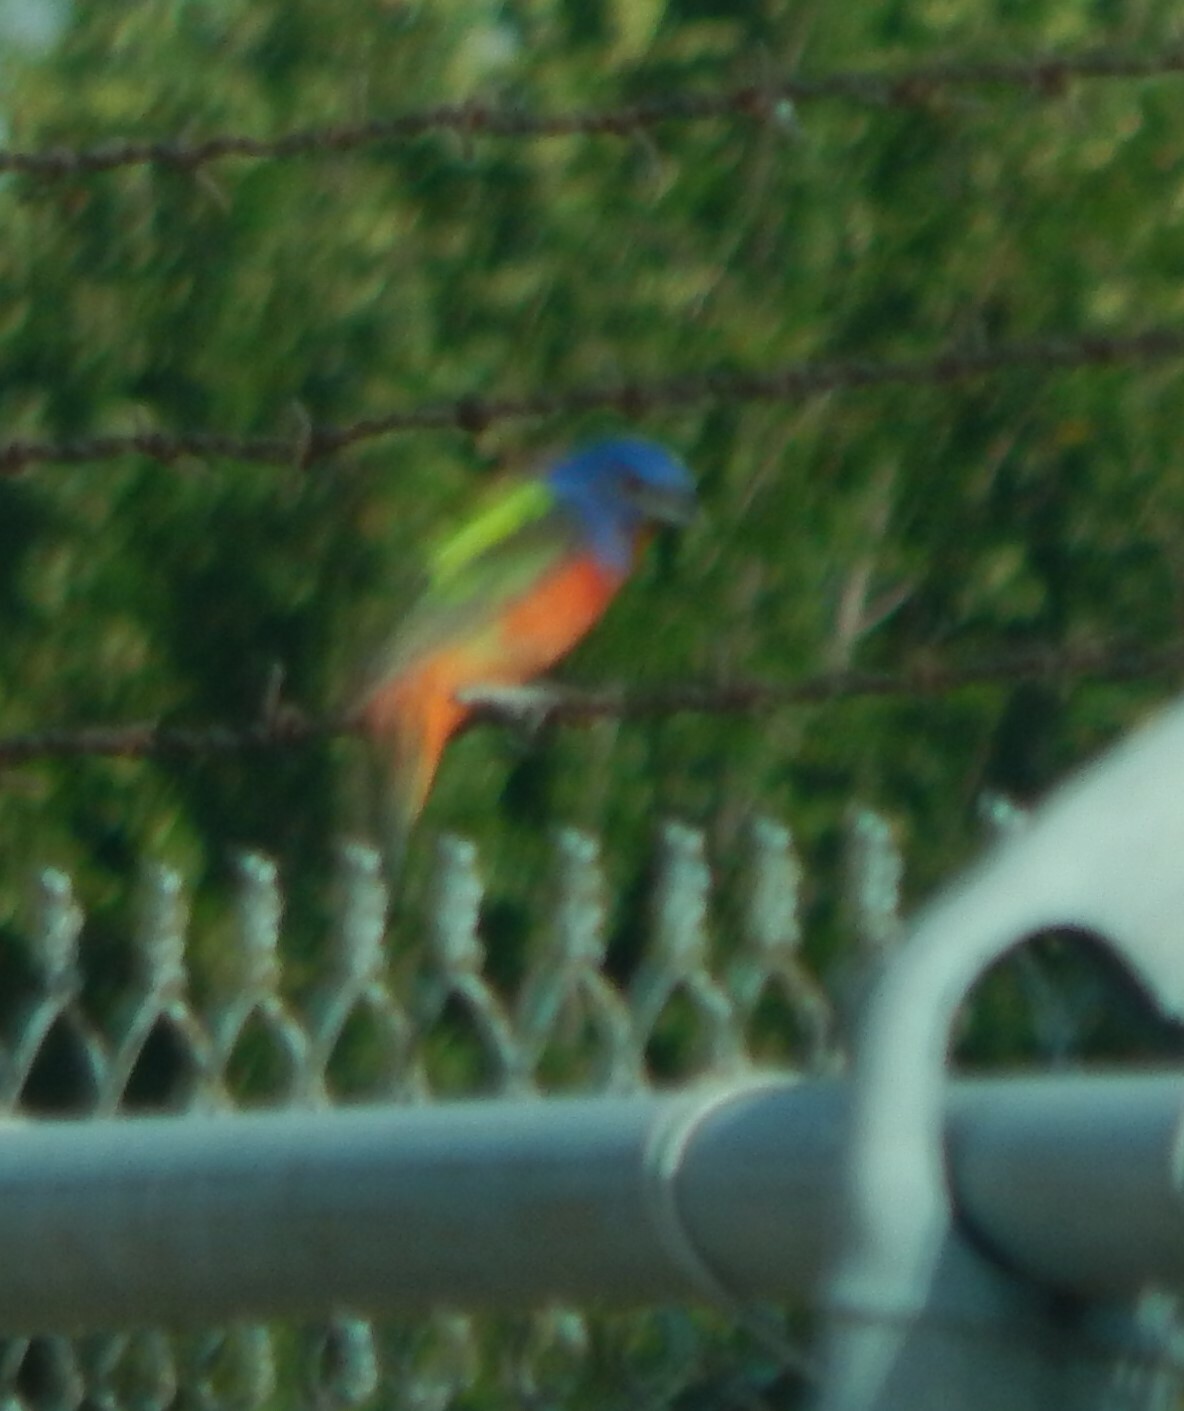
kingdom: Animalia
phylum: Chordata
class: Aves
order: Passeriformes
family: Cardinalidae
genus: Passerina
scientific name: Passerina ciris
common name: Painted bunting
